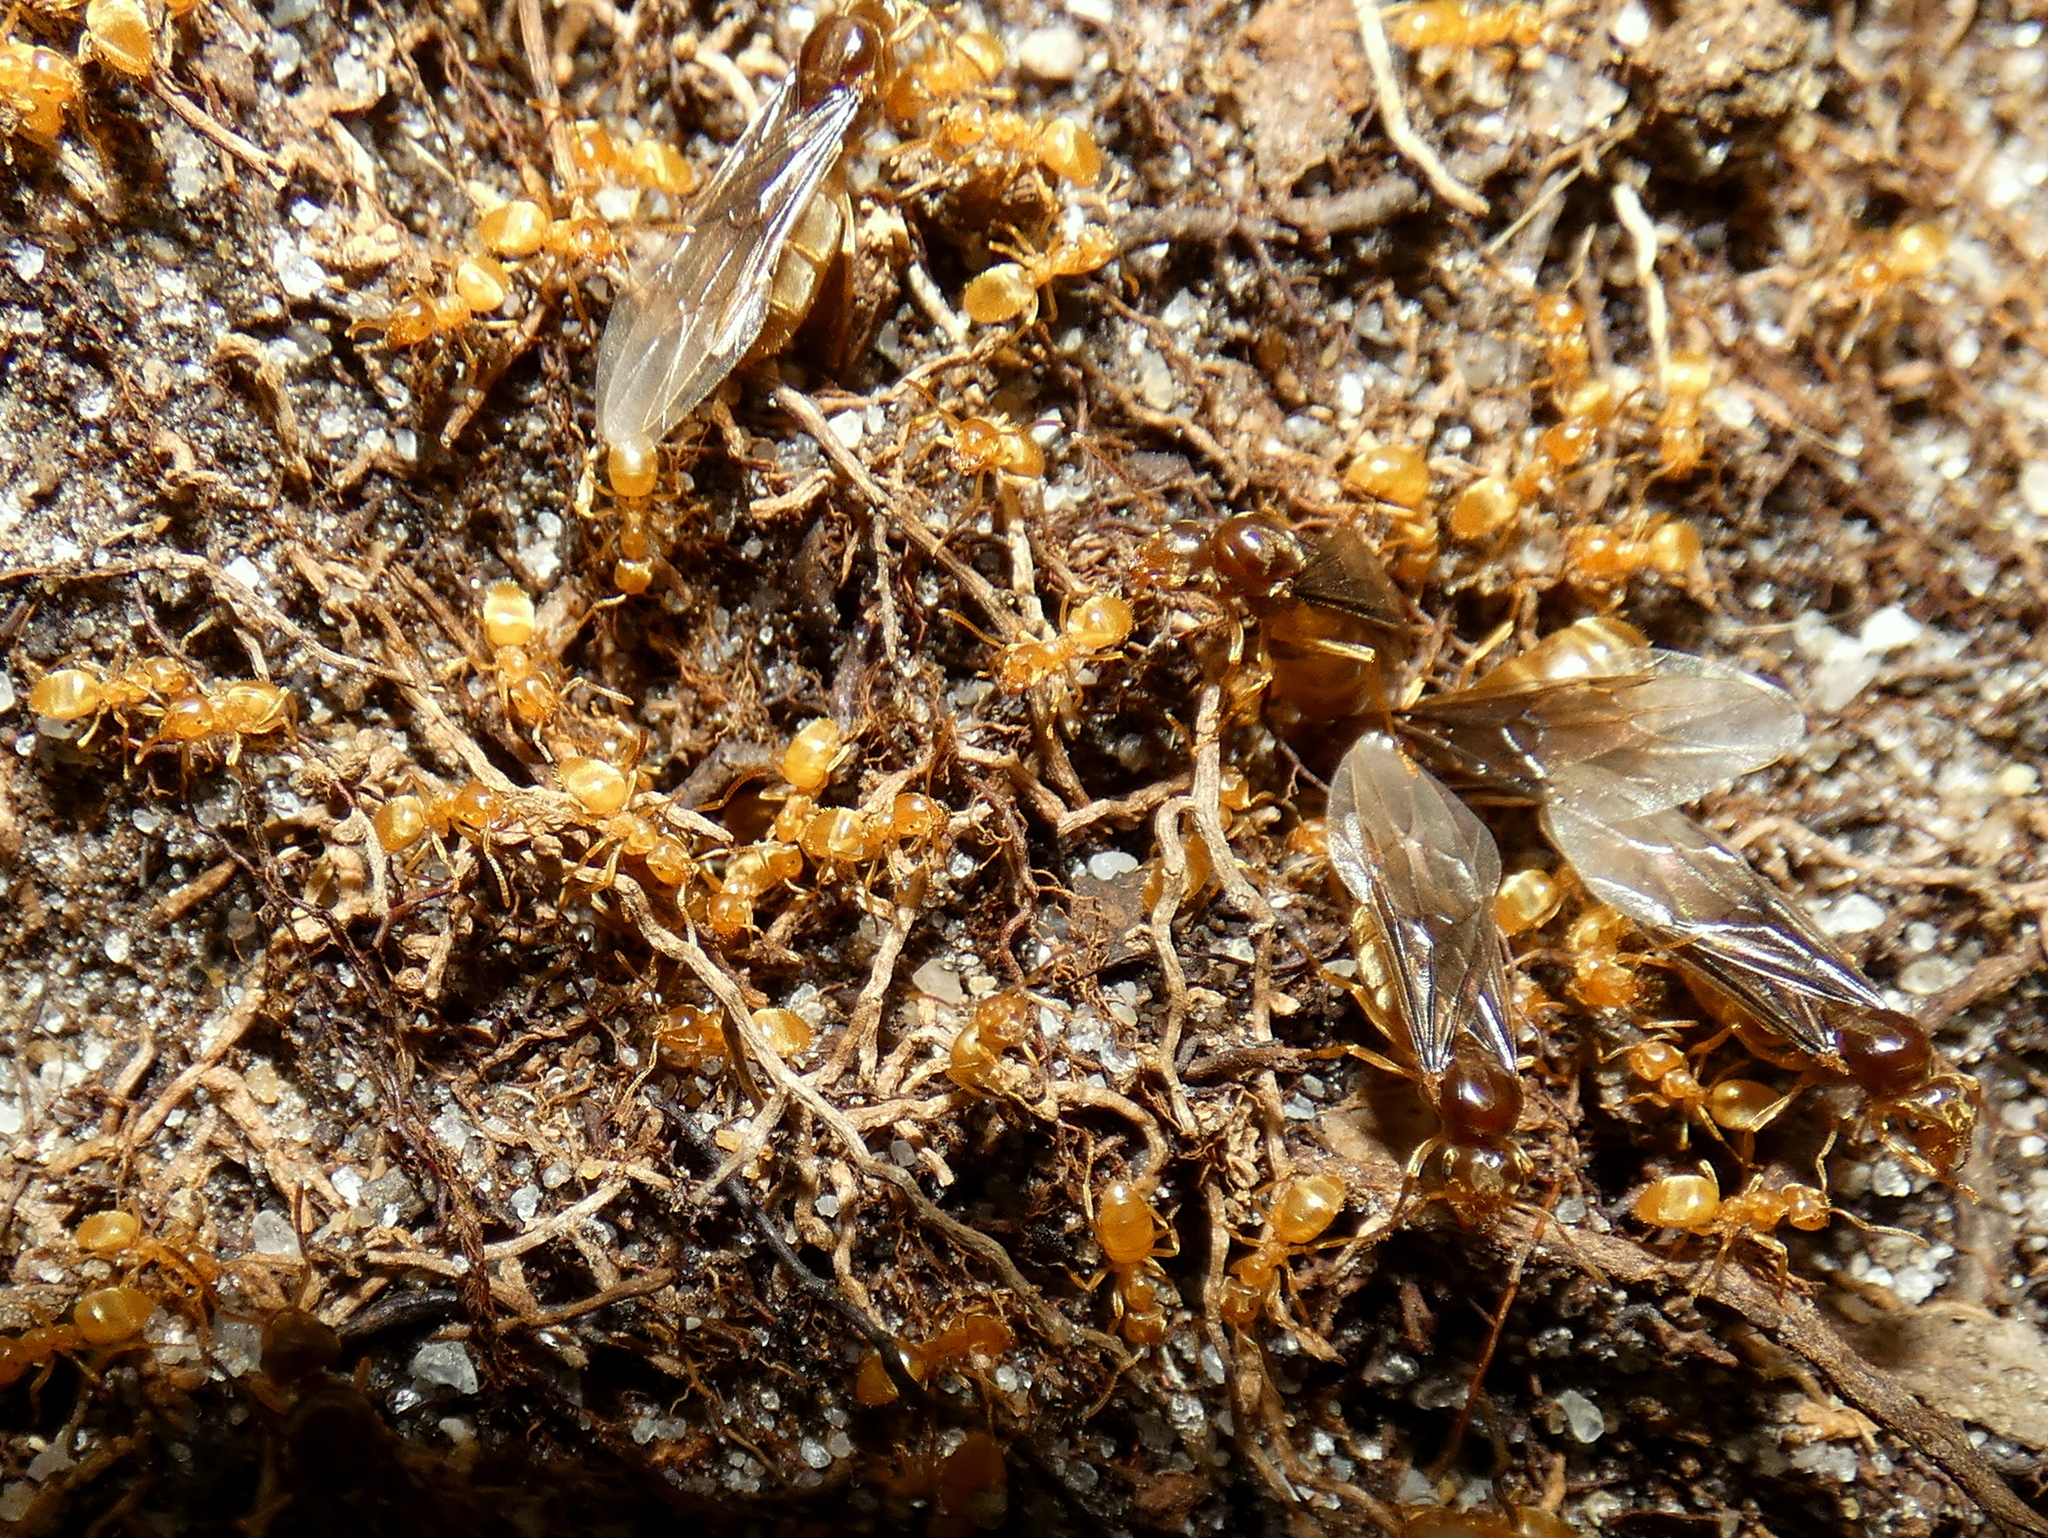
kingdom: Animalia
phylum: Arthropoda
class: Insecta
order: Hymenoptera
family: Formicidae
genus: Lasius
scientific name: Lasius nearcticus
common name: New world fuzzy ant
